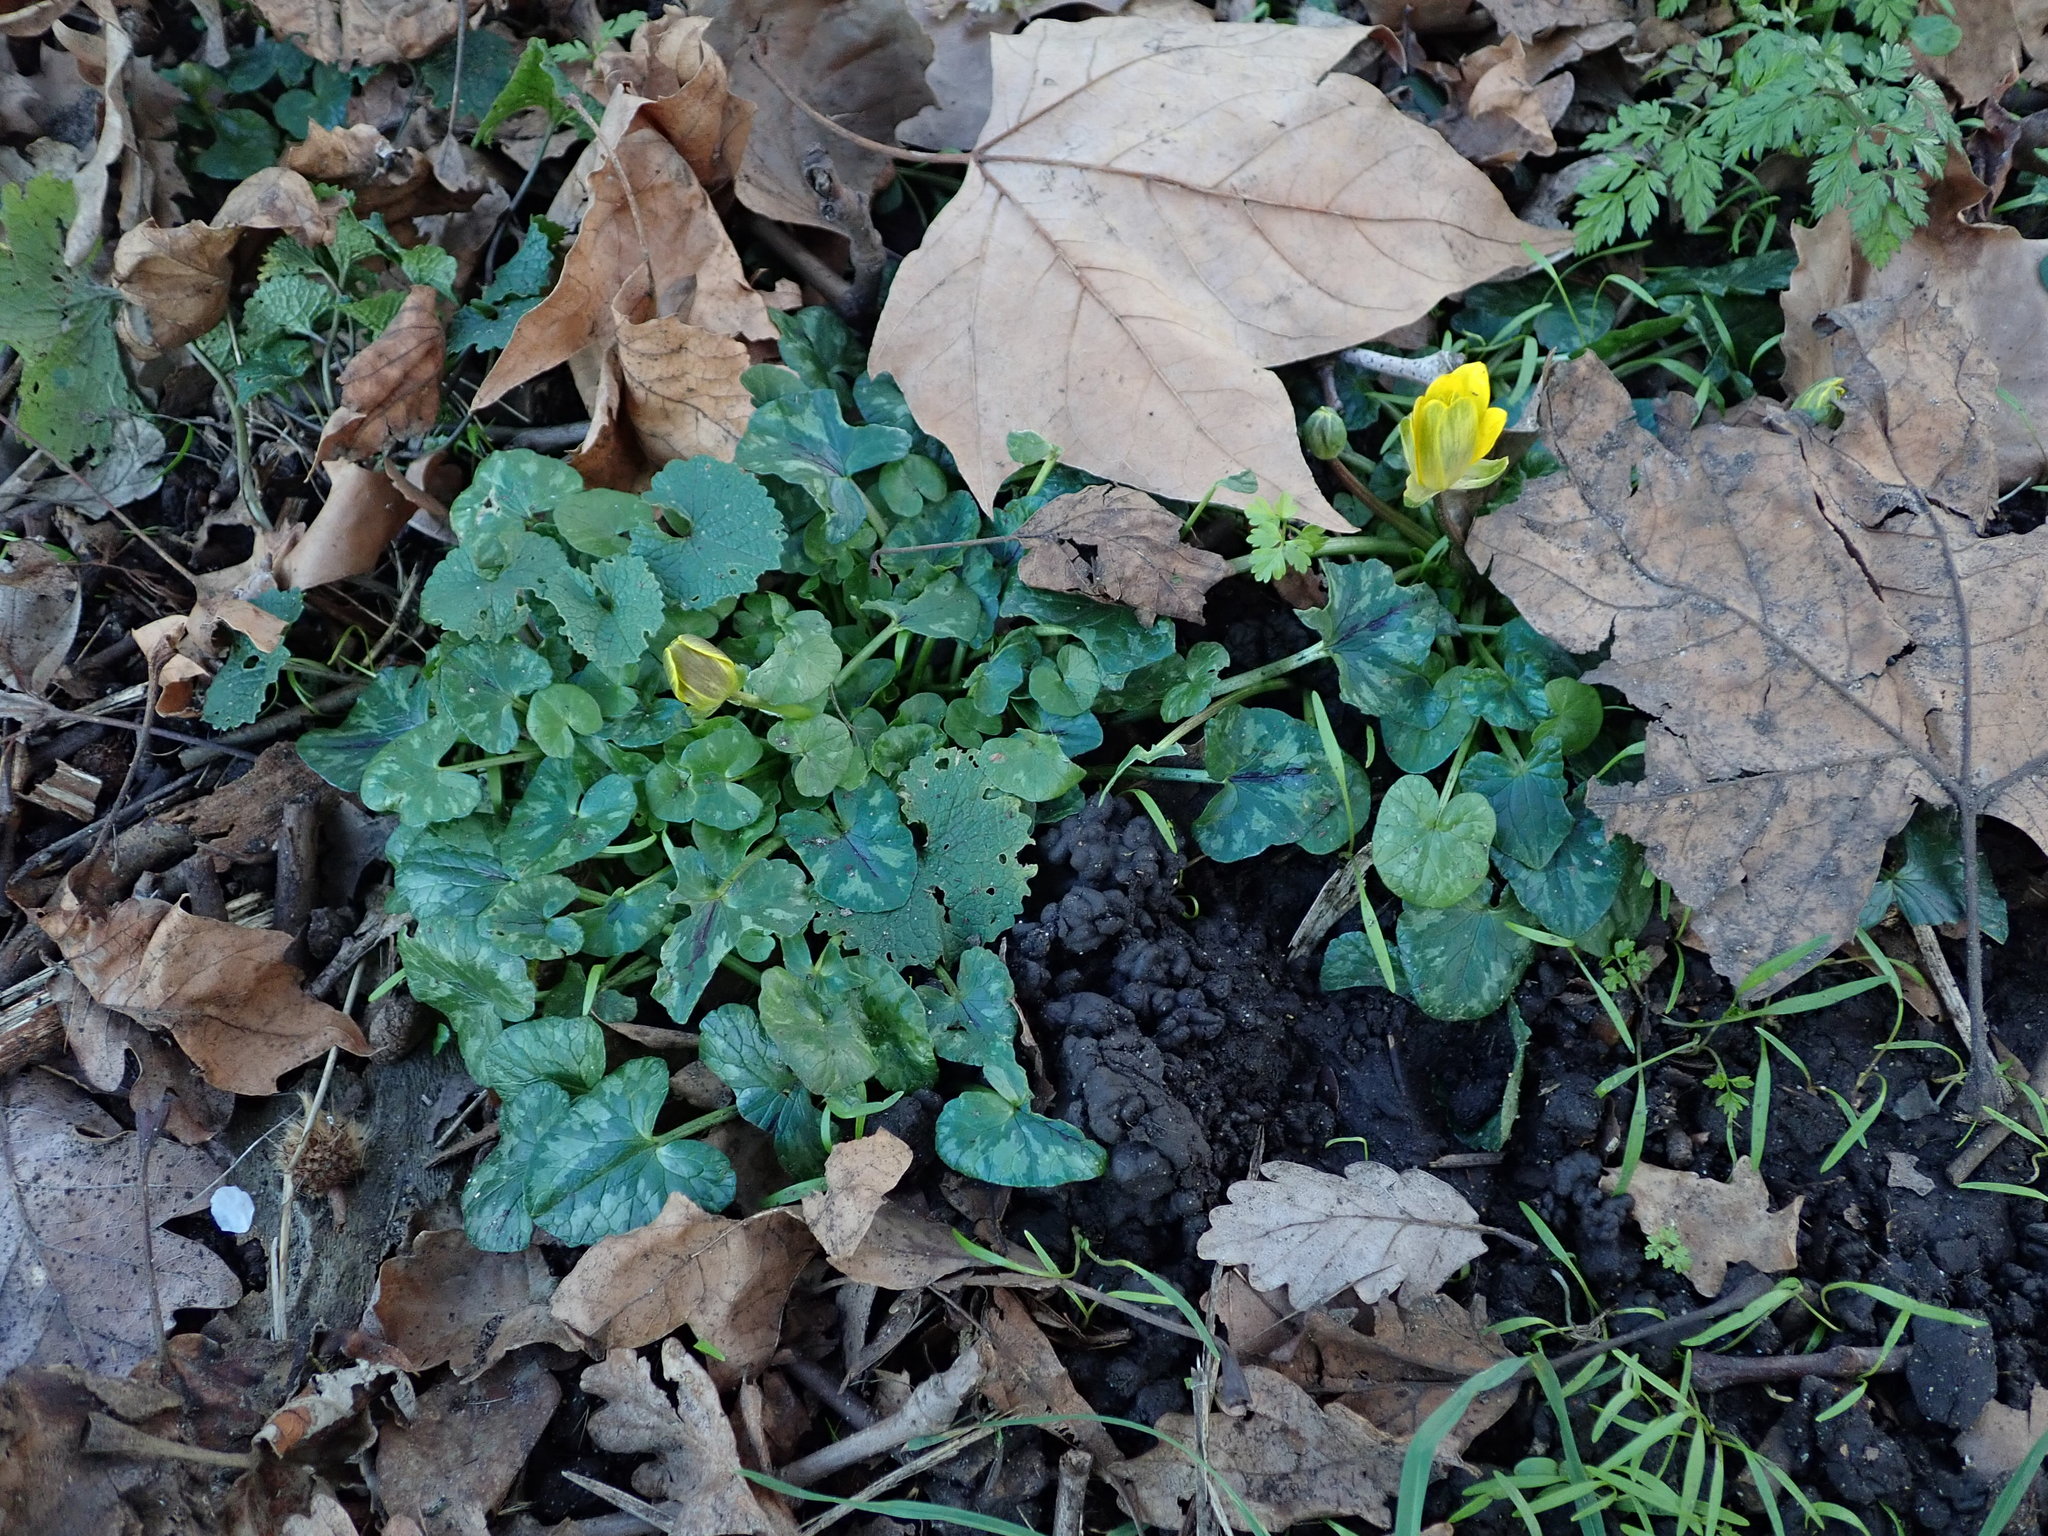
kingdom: Plantae
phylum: Tracheophyta
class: Magnoliopsida
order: Ranunculales
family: Ranunculaceae
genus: Ficaria
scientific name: Ficaria verna
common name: Lesser celandine
